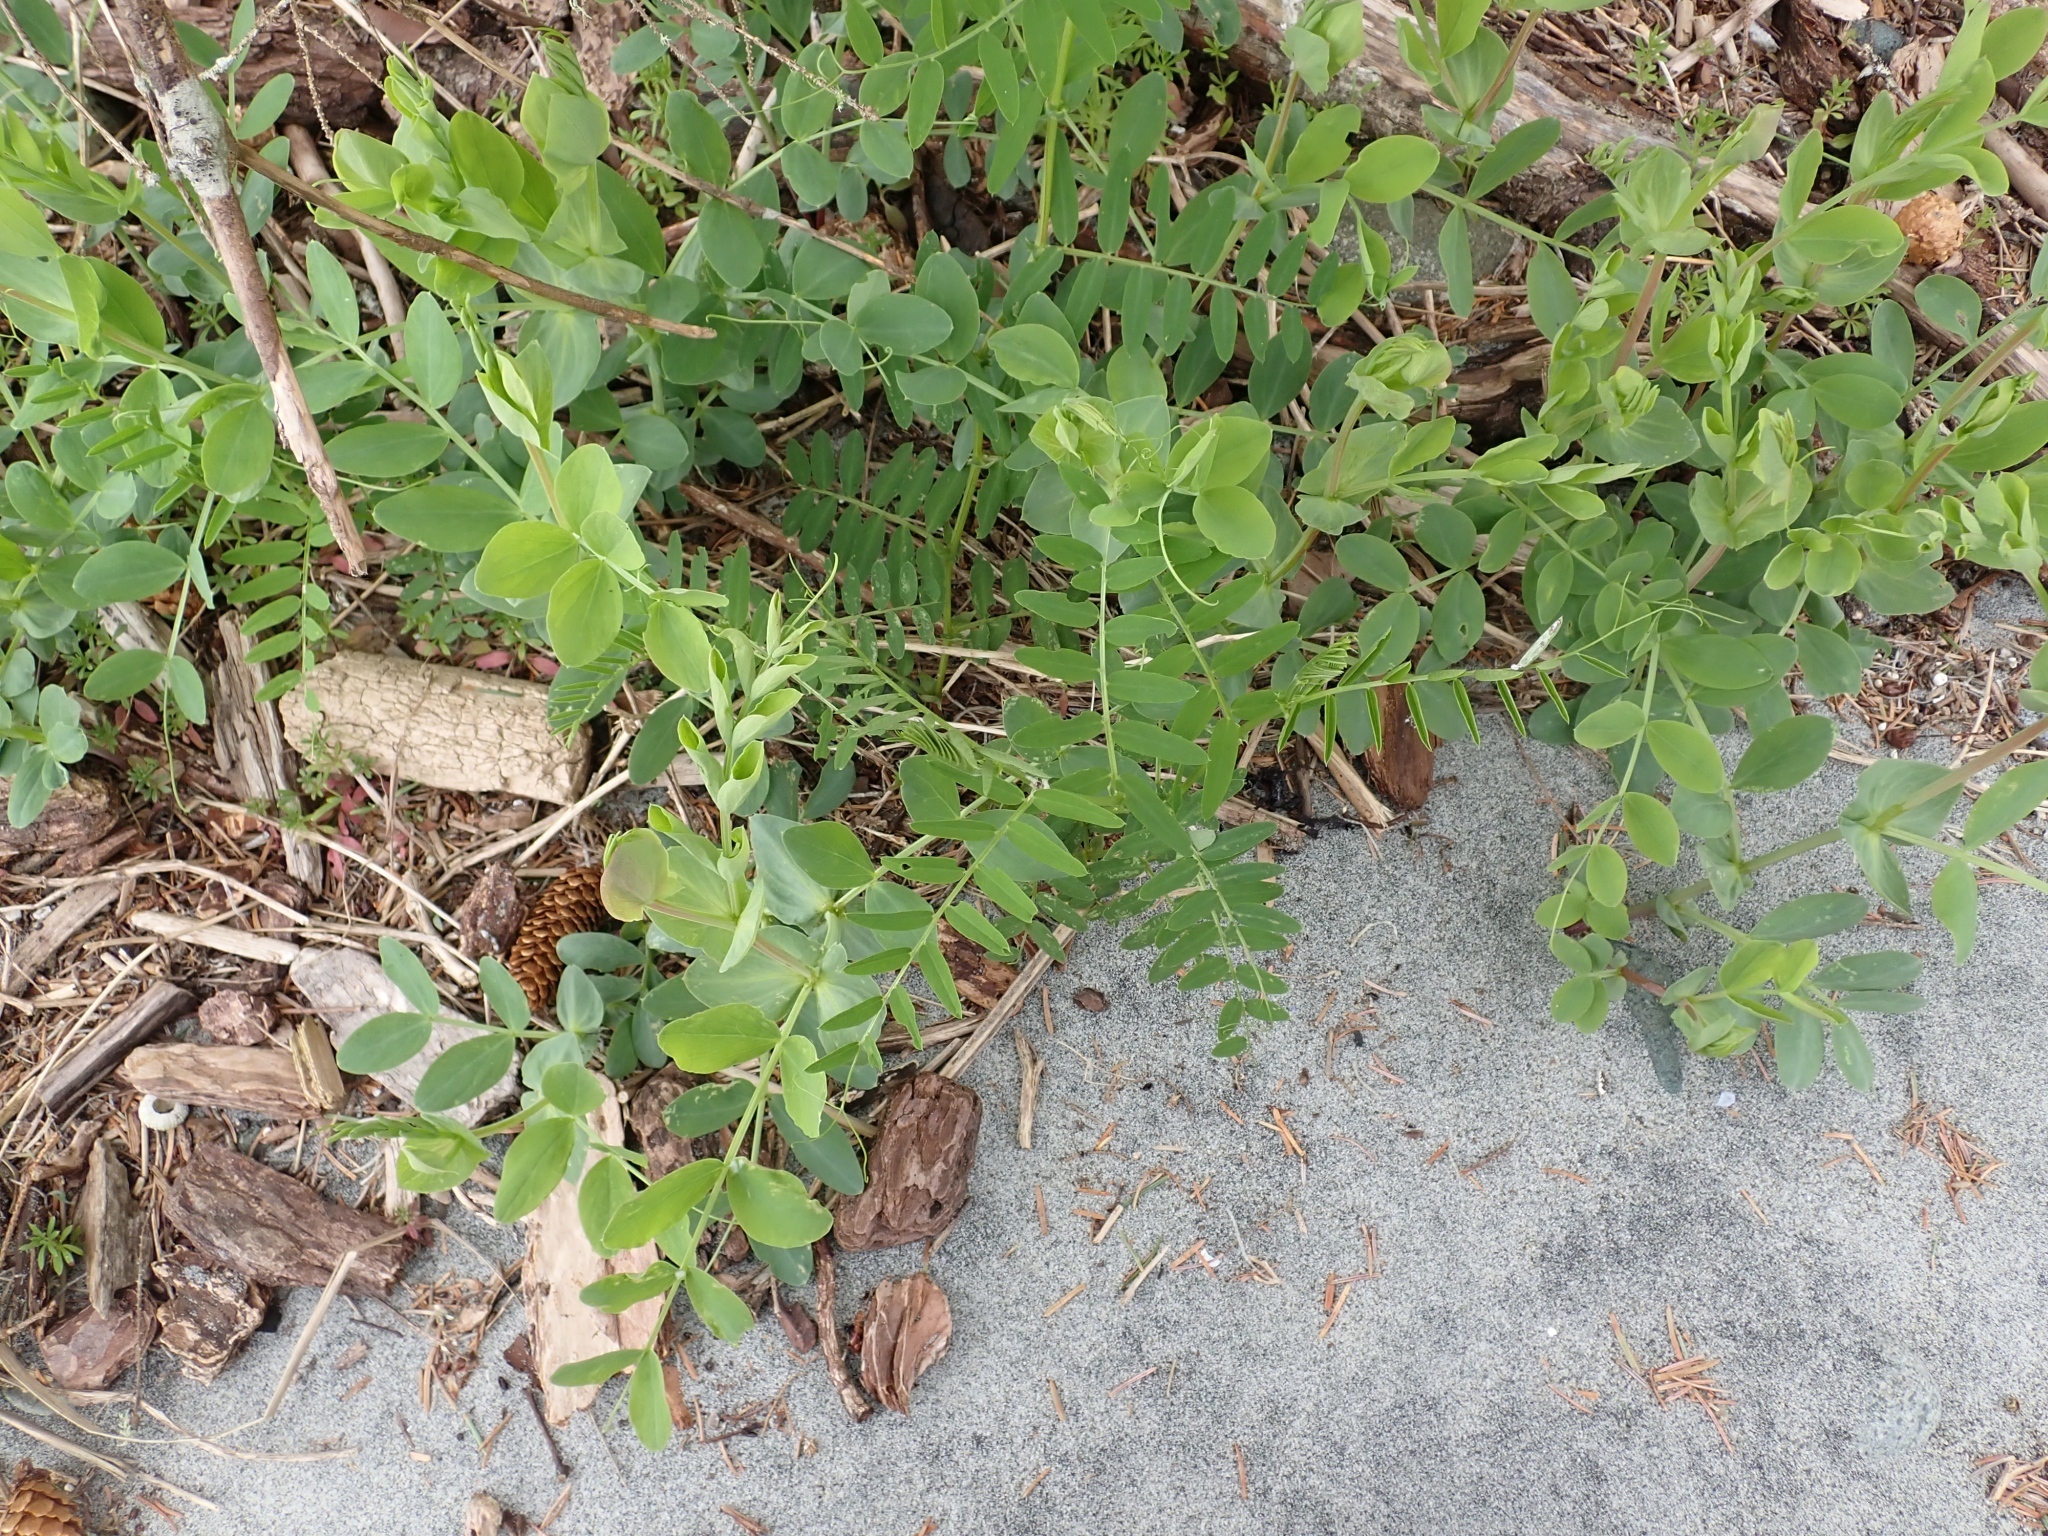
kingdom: Plantae
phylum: Tracheophyta
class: Magnoliopsida
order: Fabales
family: Fabaceae
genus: Lathyrus
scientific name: Lathyrus japonicus
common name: Sea pea
